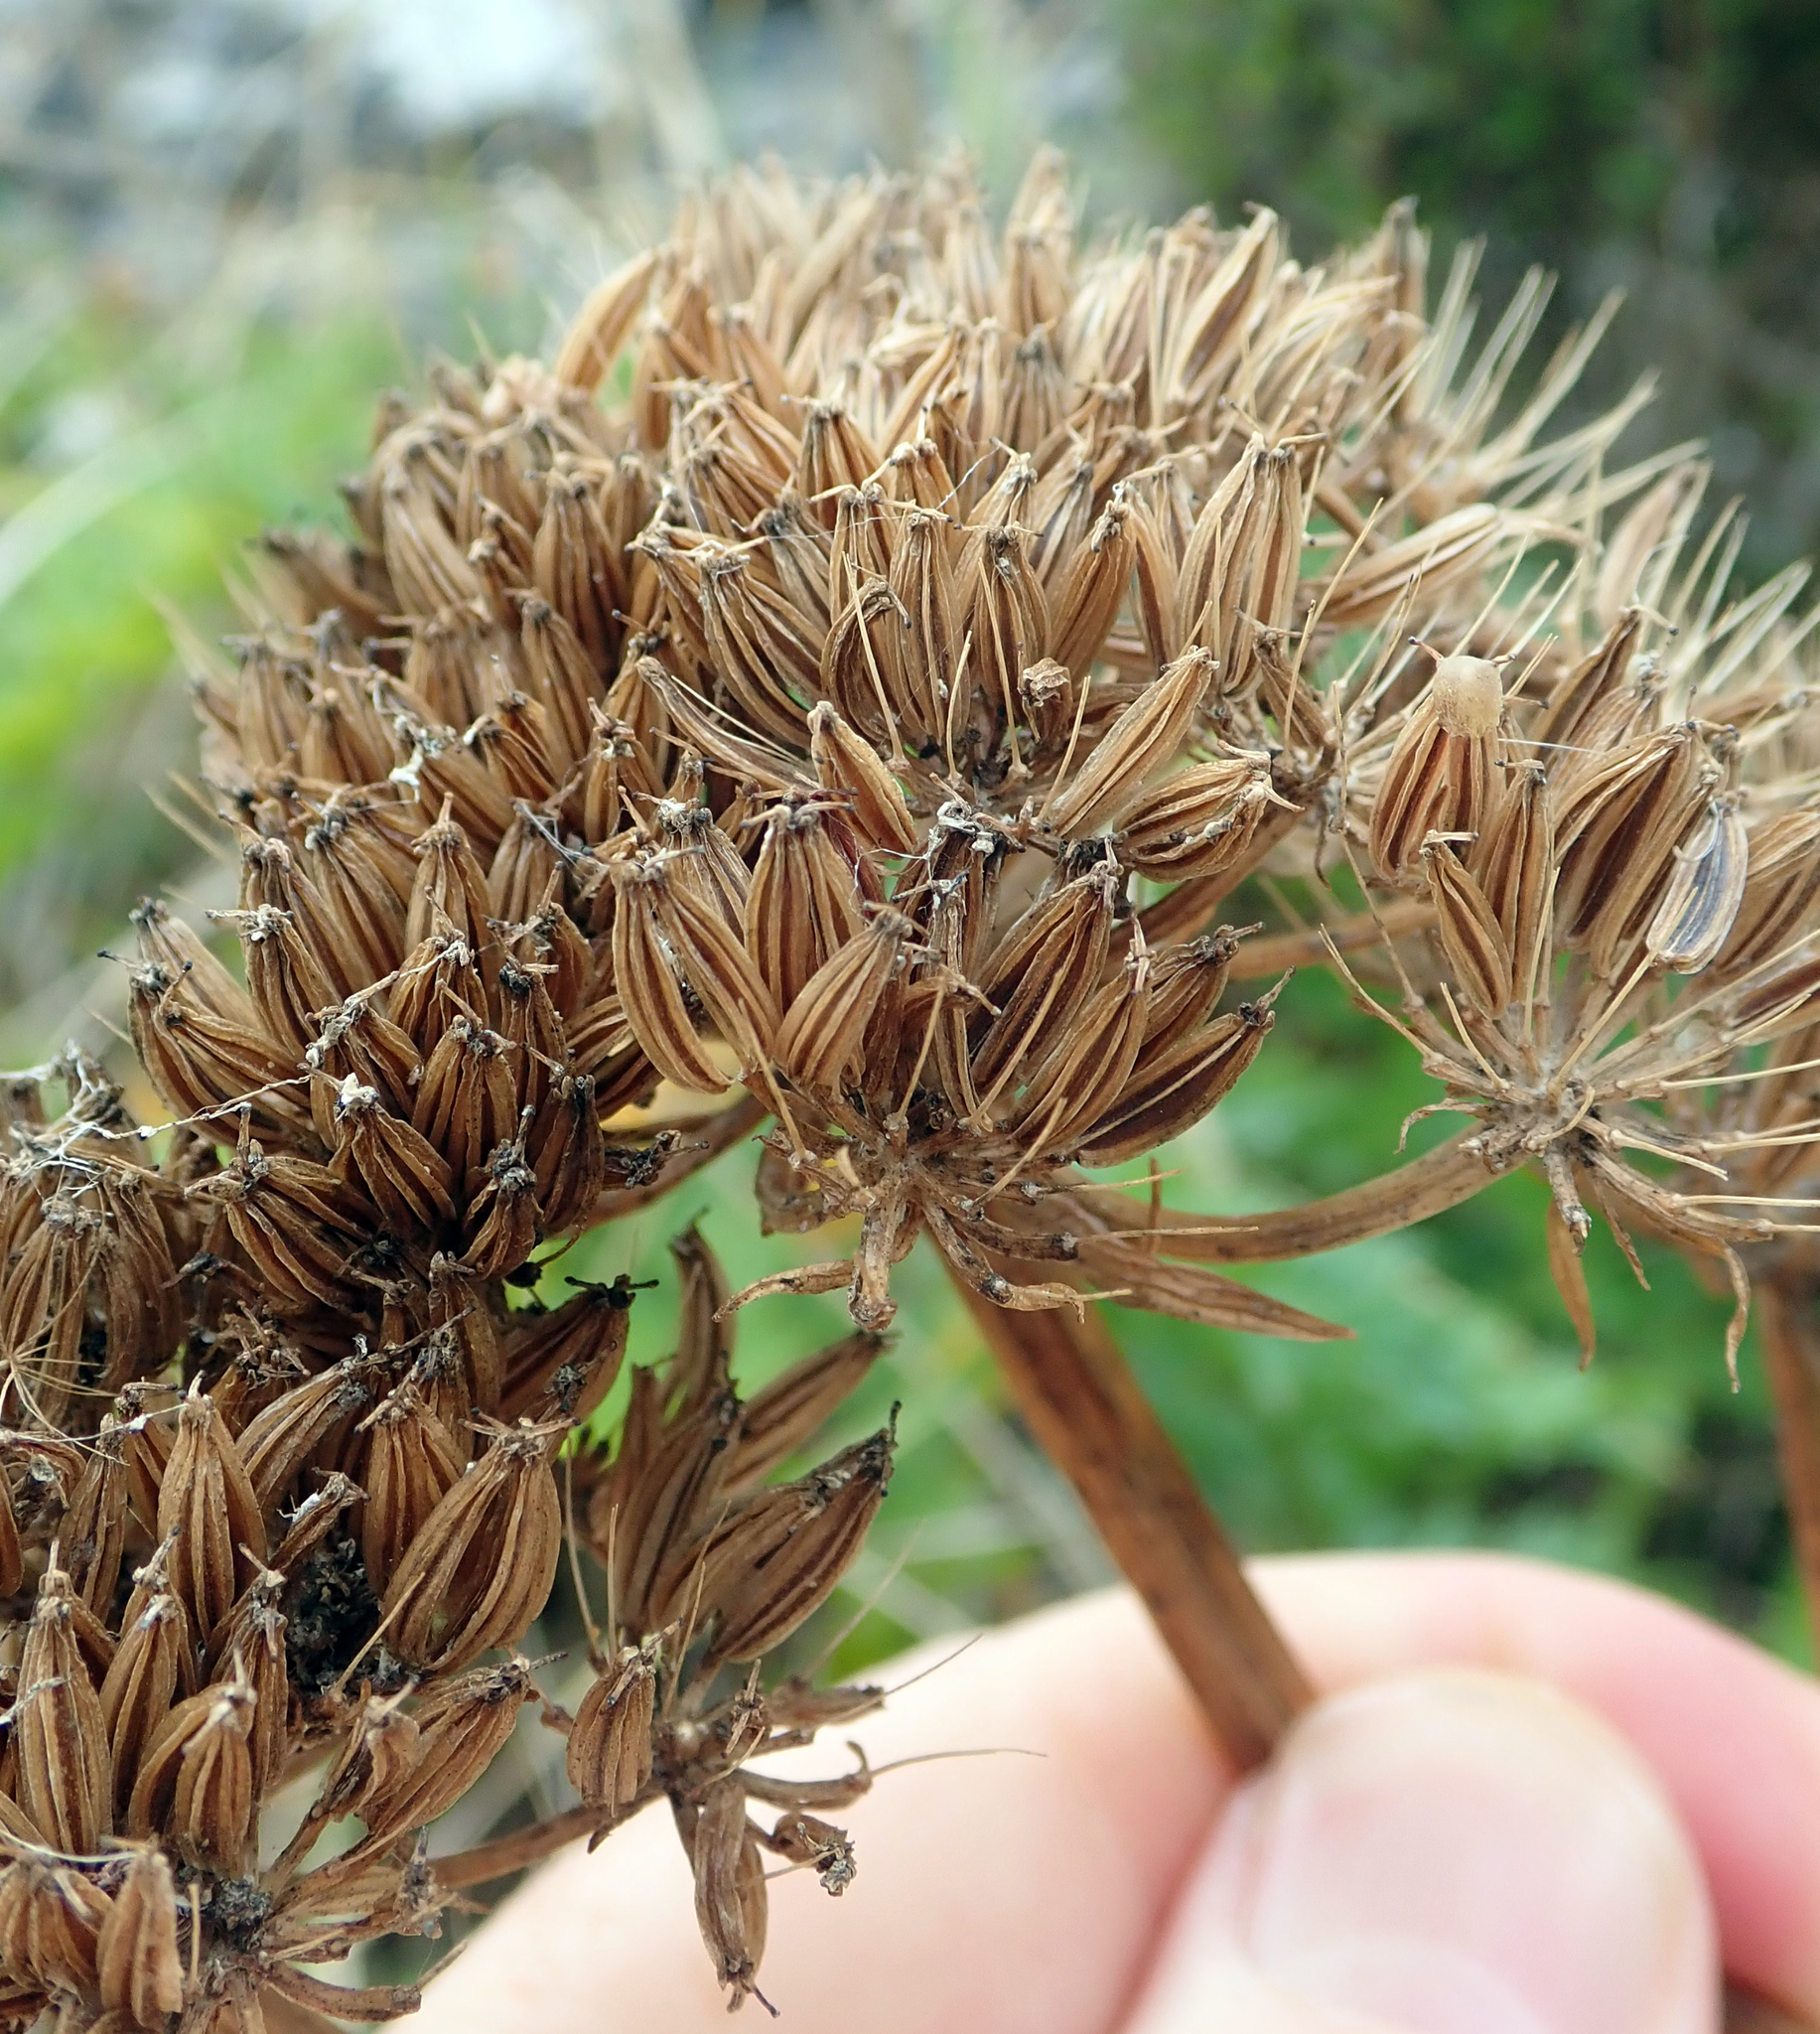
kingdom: Plantae
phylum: Tracheophyta
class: Magnoliopsida
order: Apiales
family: Apiaceae
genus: Anisotome
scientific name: Anisotome lyallii
